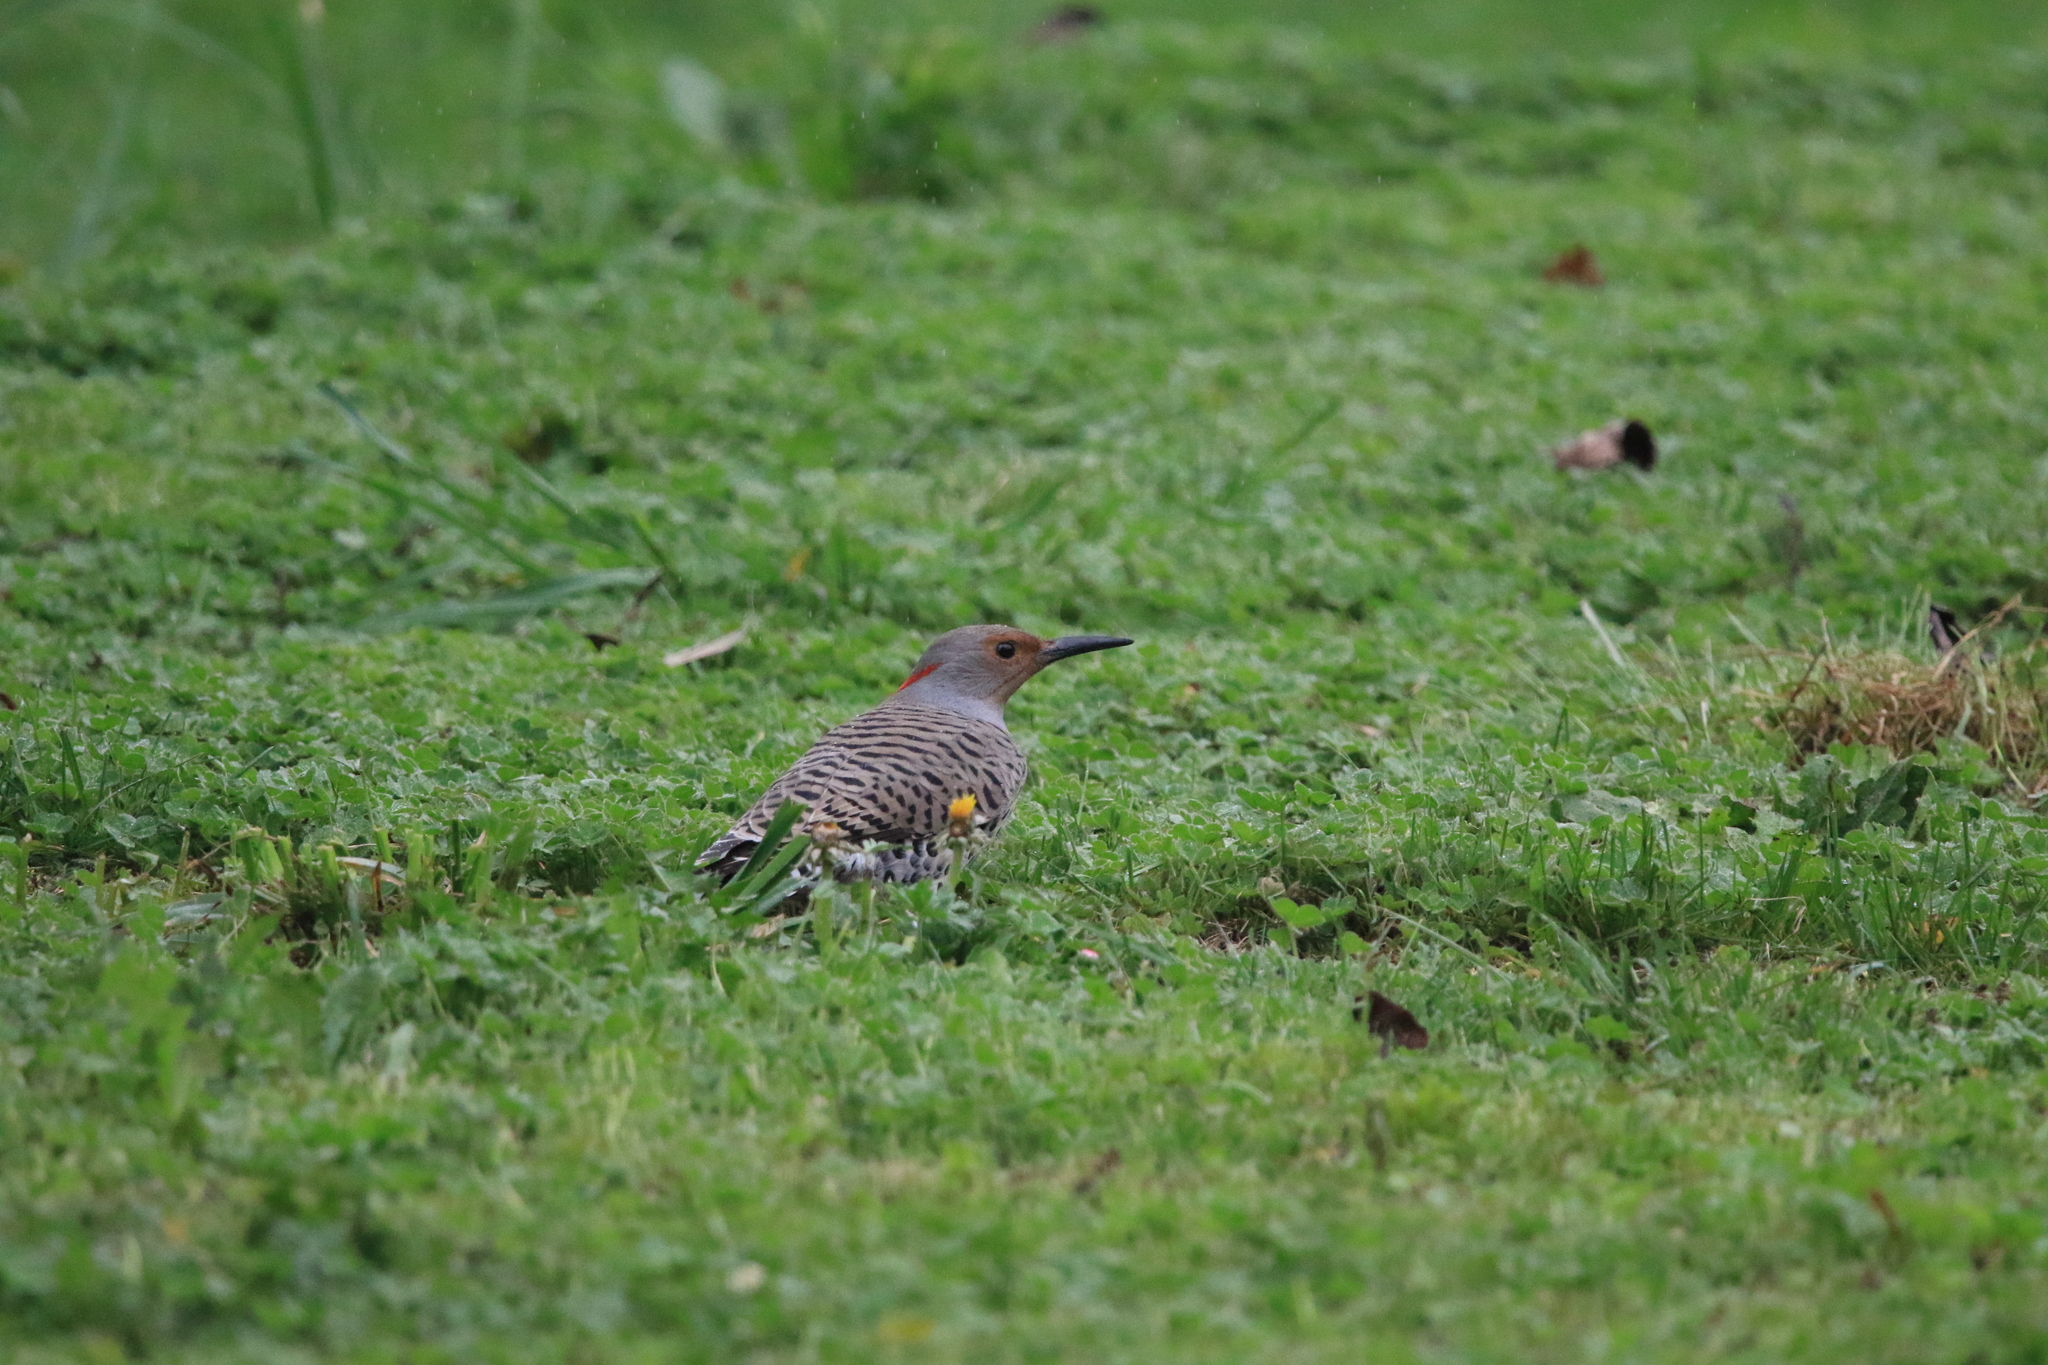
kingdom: Animalia
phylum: Chordata
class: Aves
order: Piciformes
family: Picidae
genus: Colaptes
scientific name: Colaptes auratus
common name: Northern flicker
